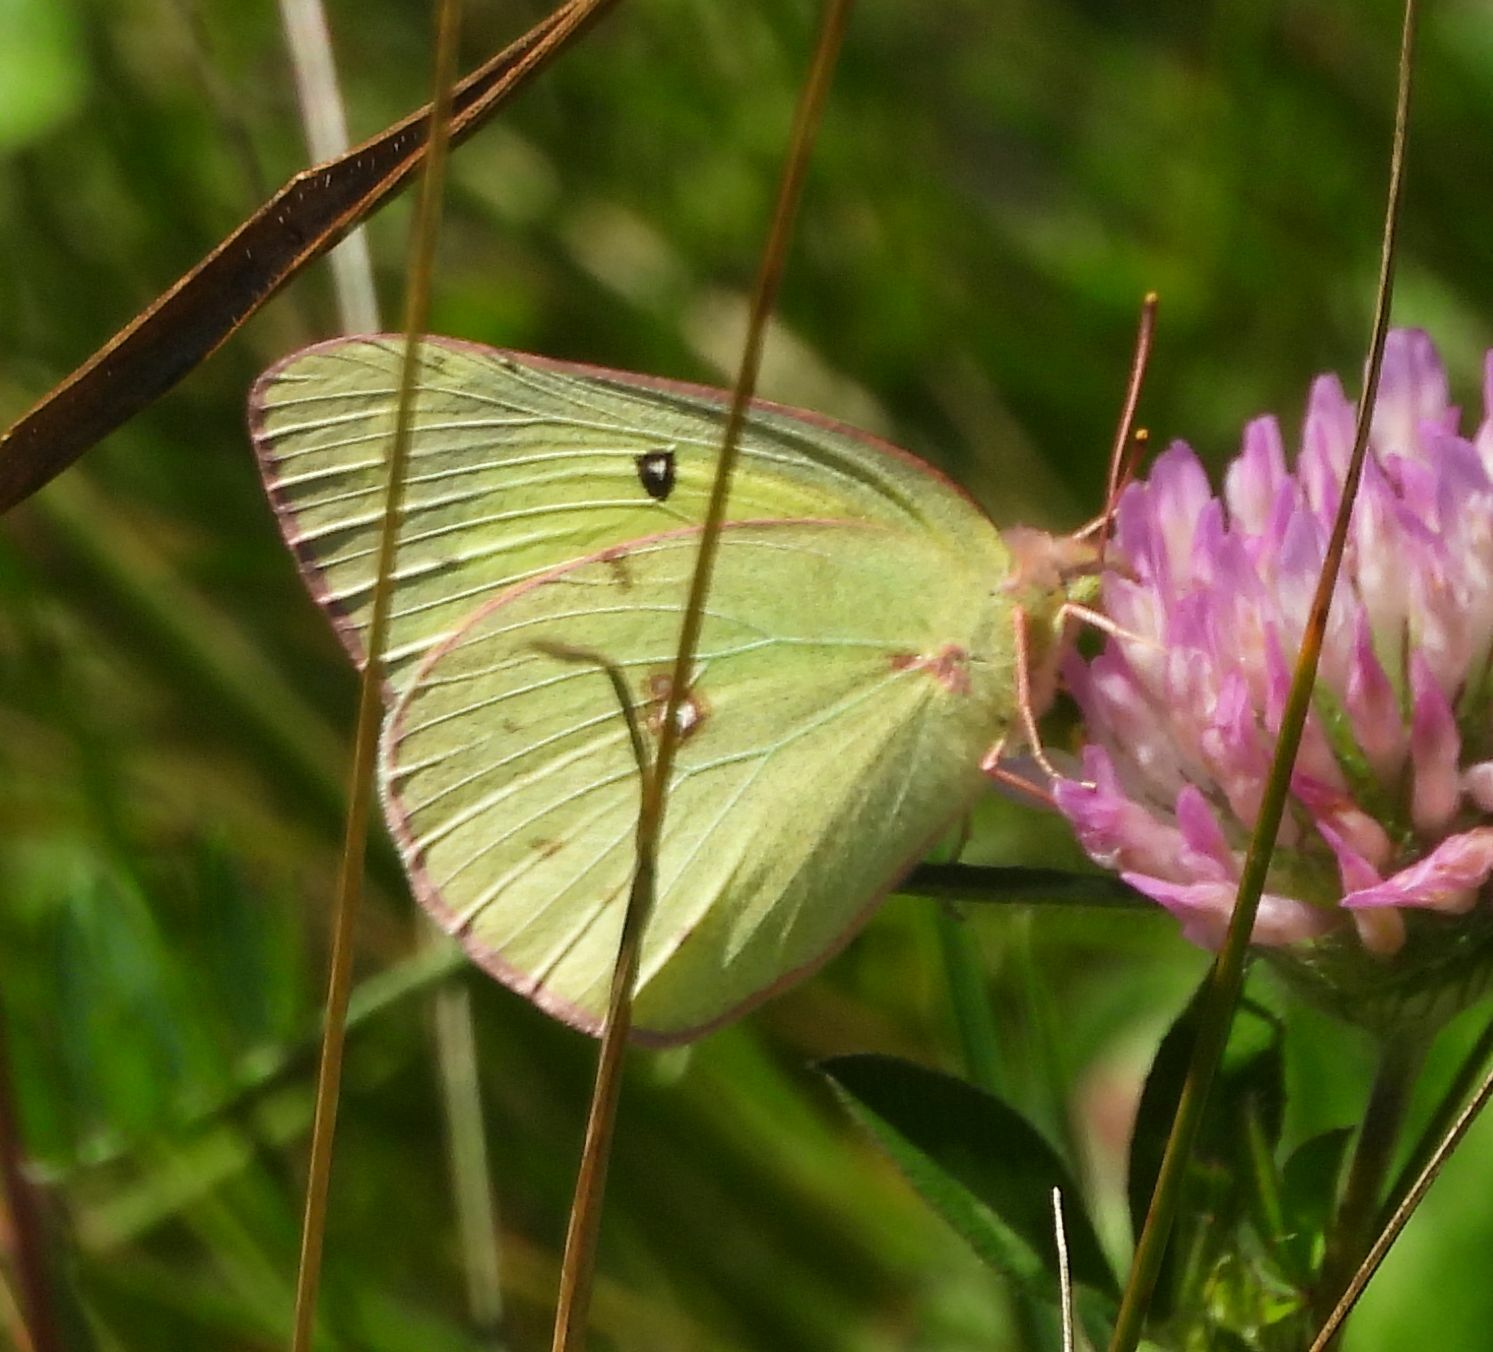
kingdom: Animalia
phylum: Arthropoda
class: Insecta
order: Lepidoptera
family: Pieridae
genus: Colias
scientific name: Colias philodice
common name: Clouded sulphur
